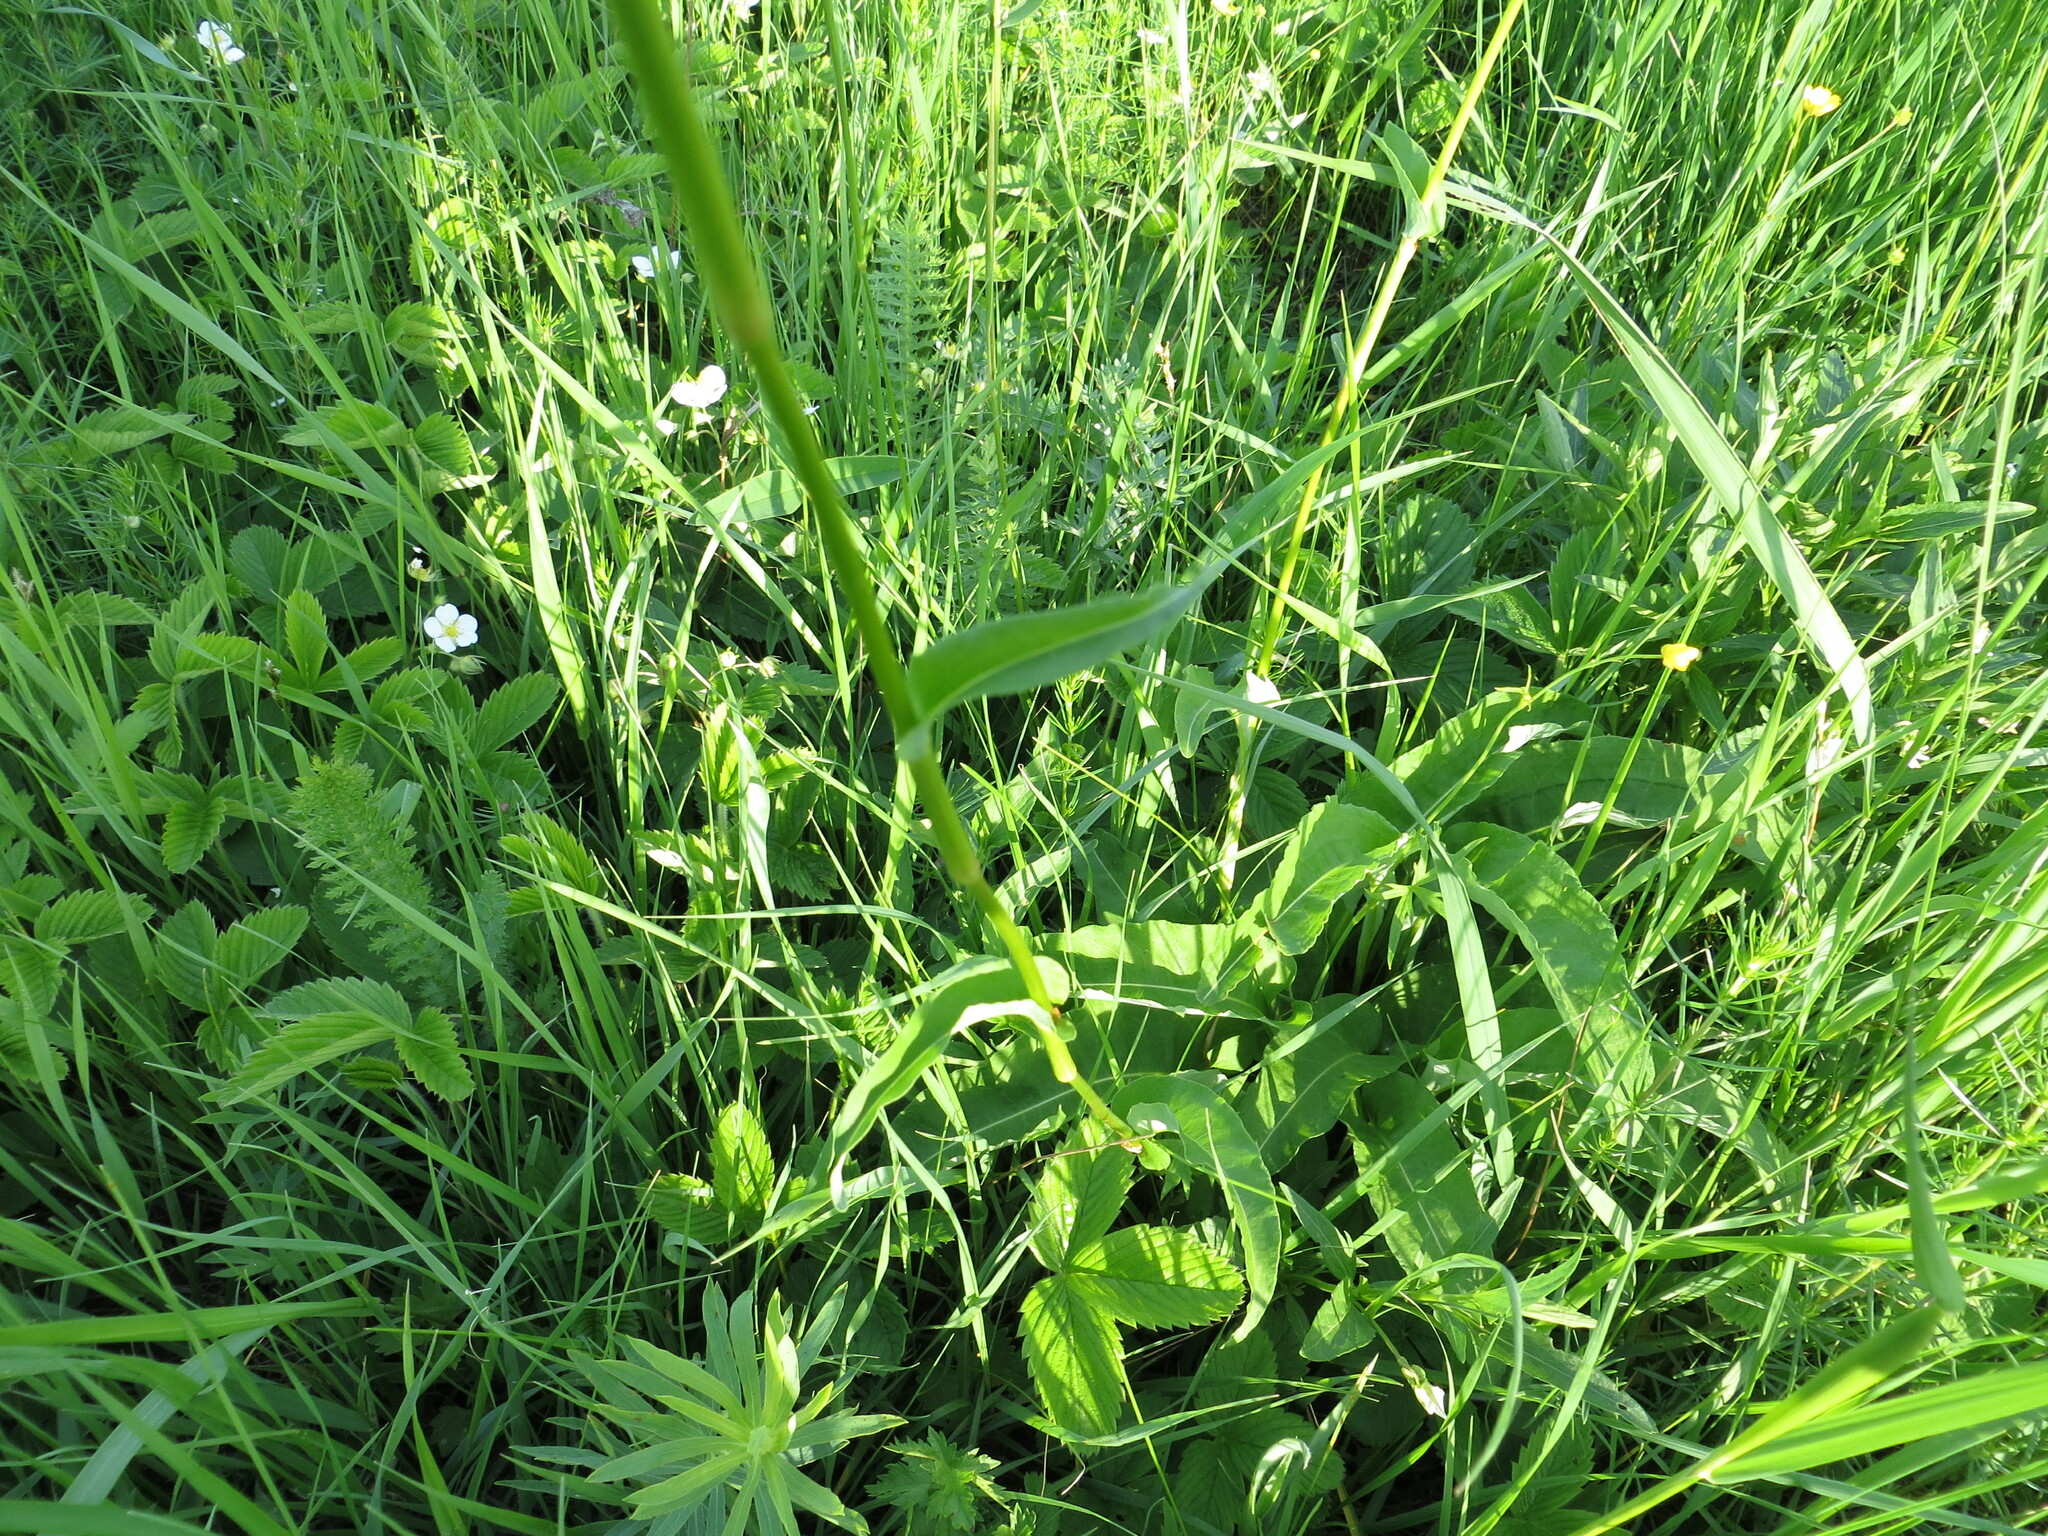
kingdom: Plantae
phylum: Tracheophyta
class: Magnoliopsida
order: Caryophyllales
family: Polygonaceae
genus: Bistorta
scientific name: Bistorta officinalis
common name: Common bistort
